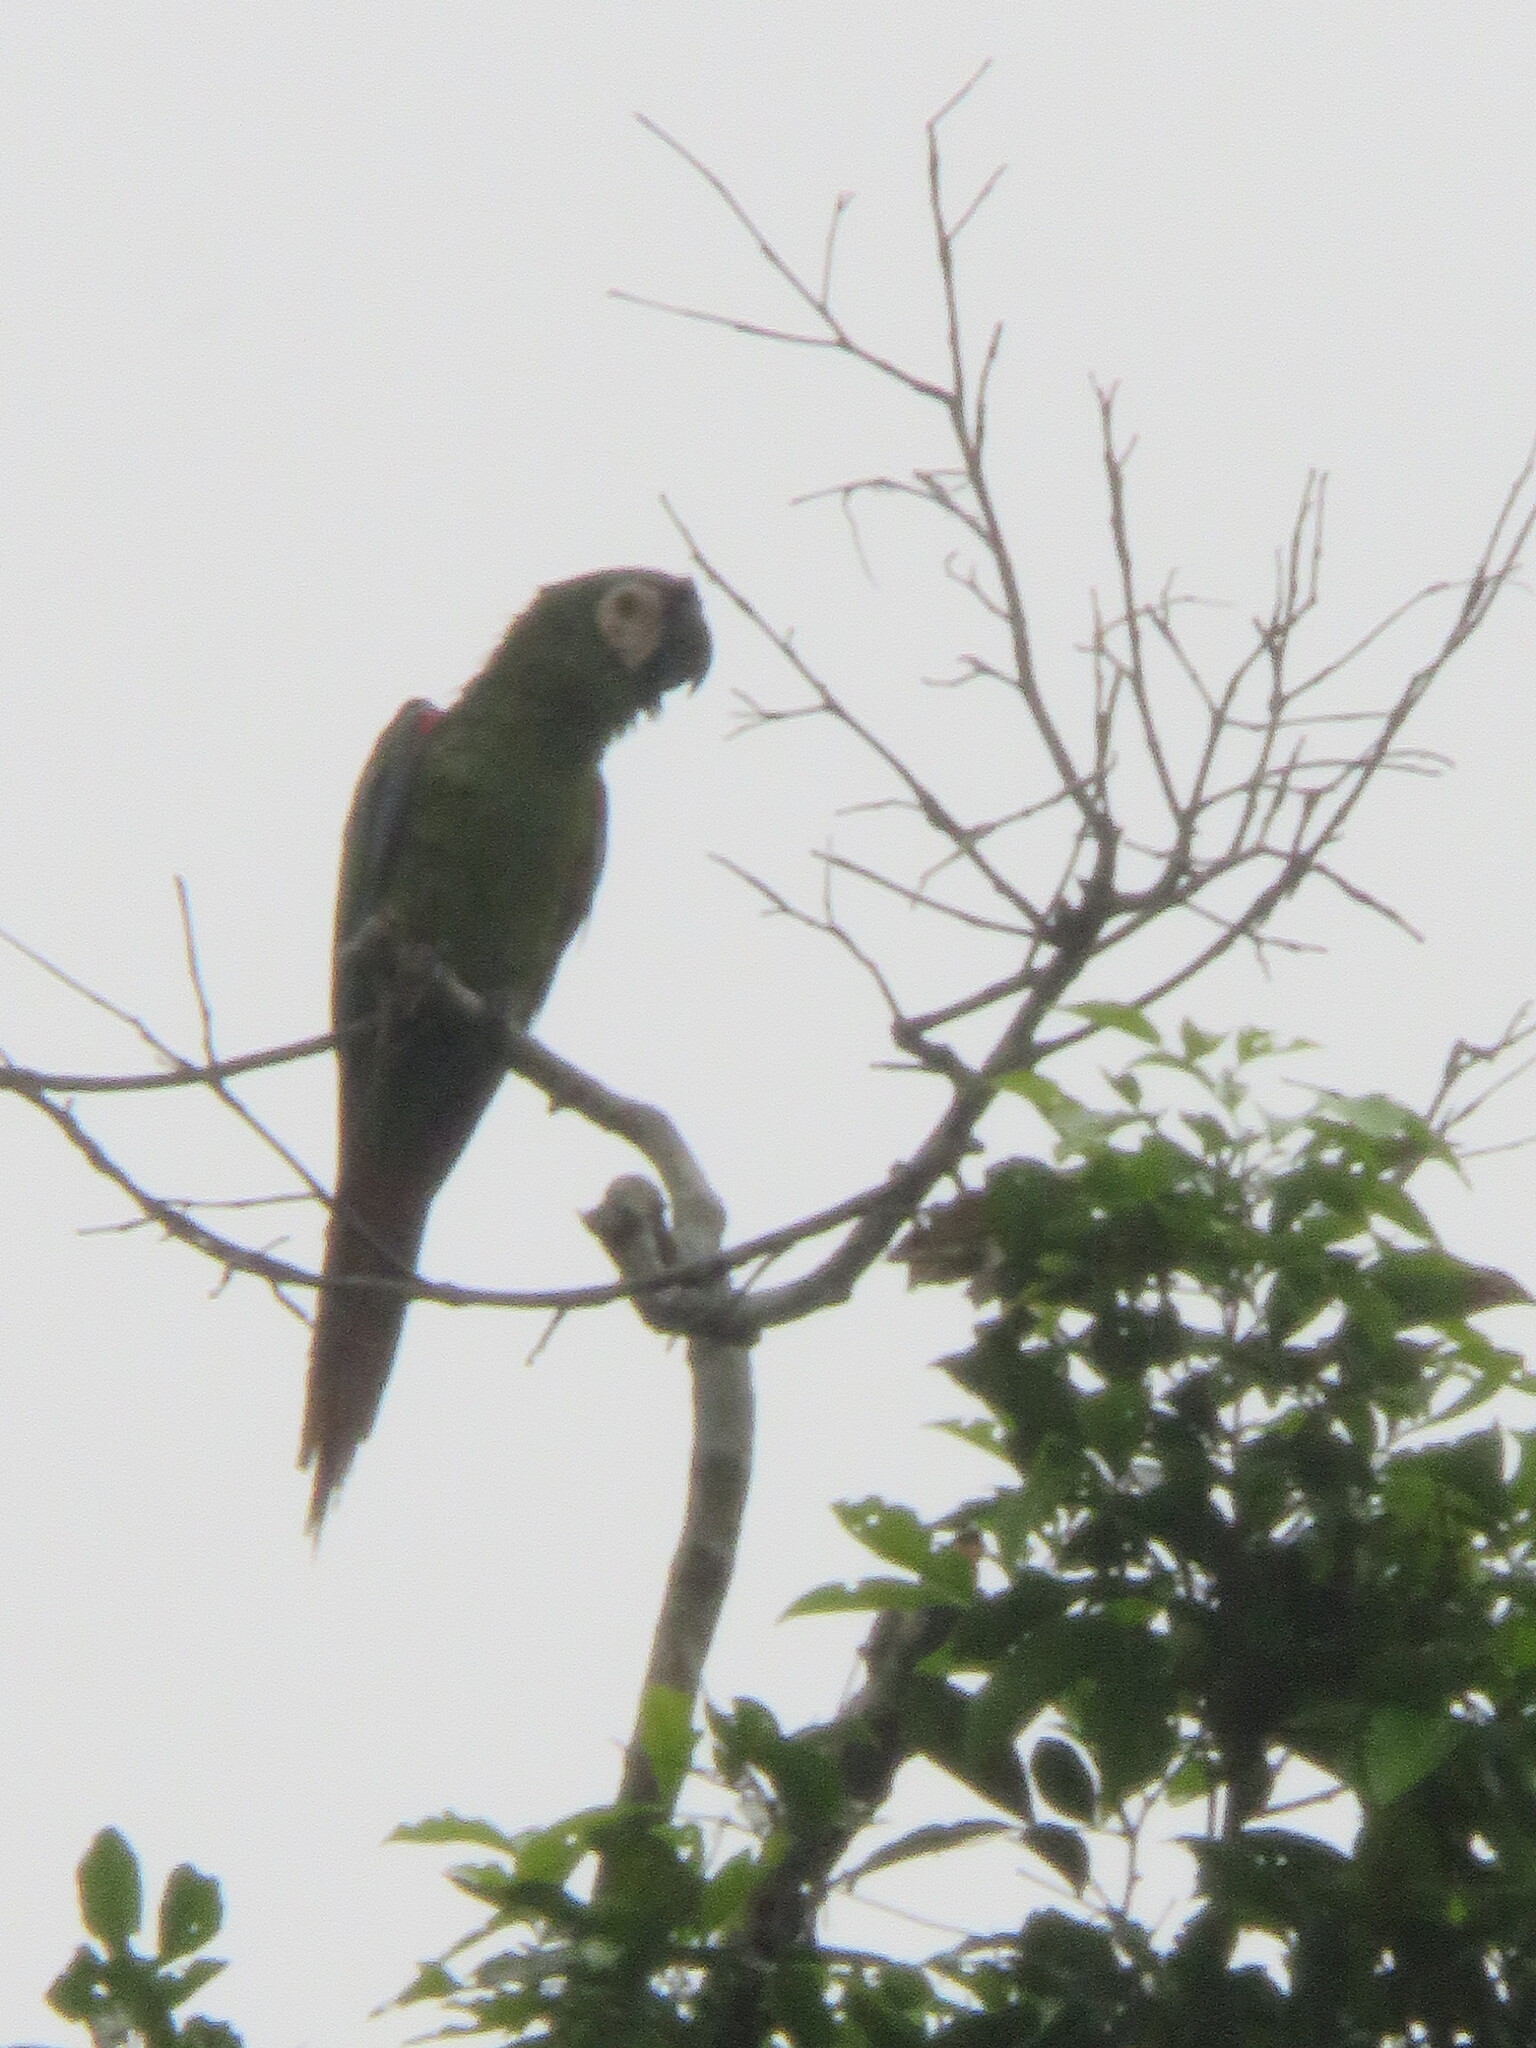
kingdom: Animalia
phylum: Chordata
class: Aves
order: Psittaciformes
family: Psittacidae
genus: Ara
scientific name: Ara severus
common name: Chestnut-fronted macaw
